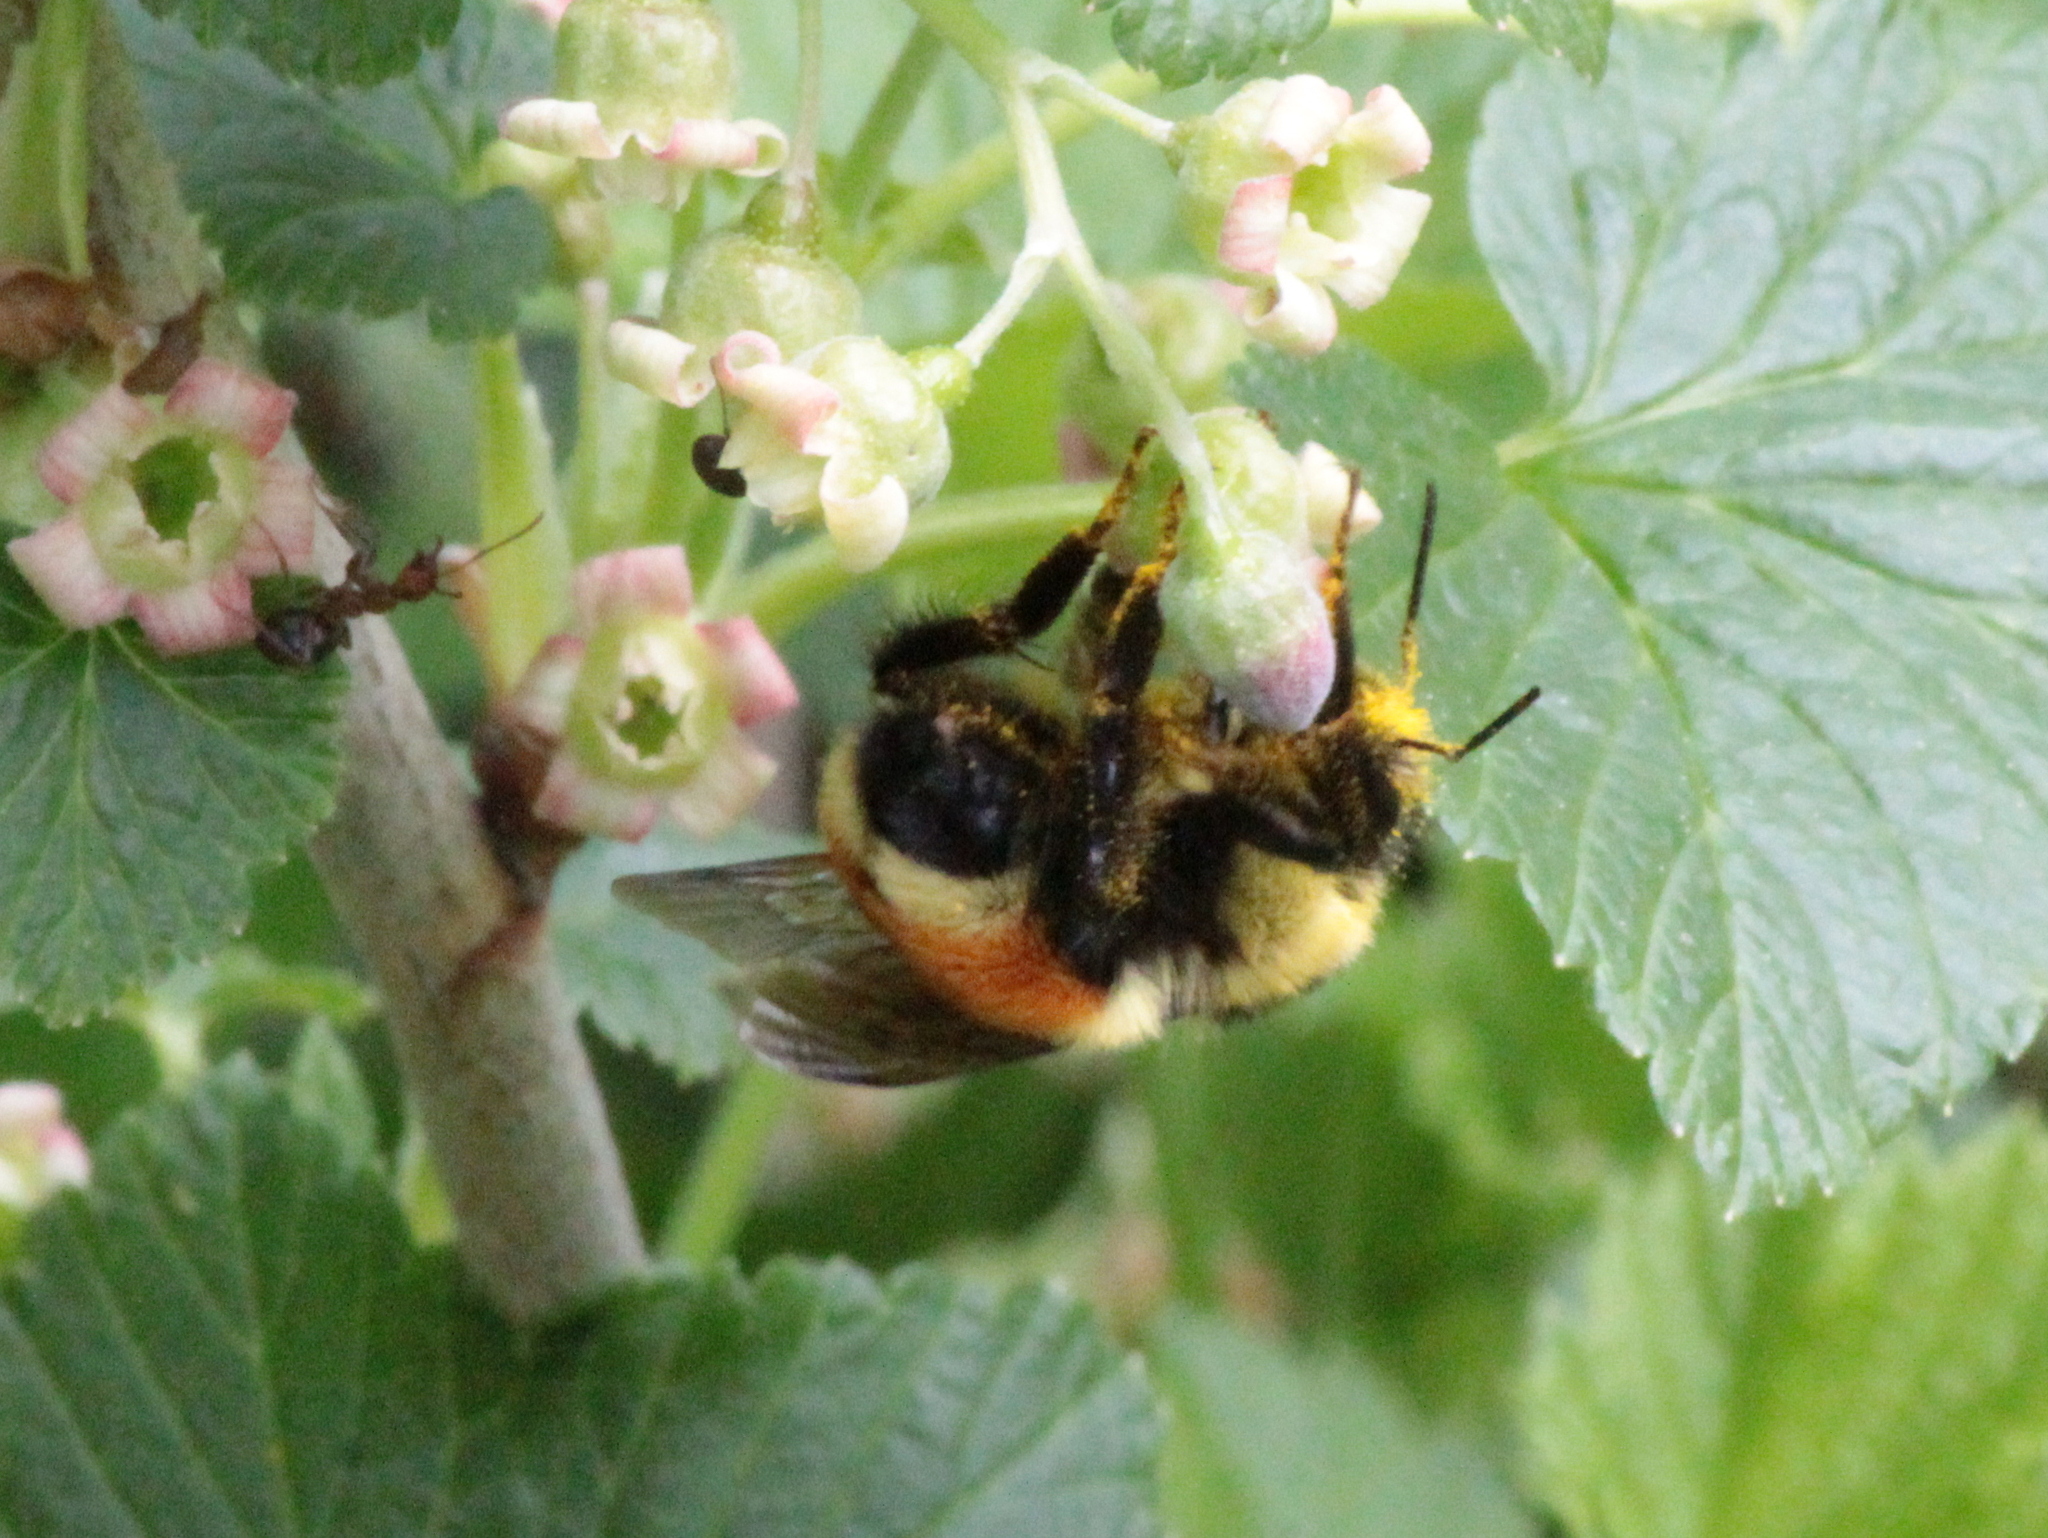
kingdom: Animalia
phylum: Arthropoda
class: Insecta
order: Hymenoptera
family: Apidae
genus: Bombus
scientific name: Bombus ternarius
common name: Tri-colored bumble bee
